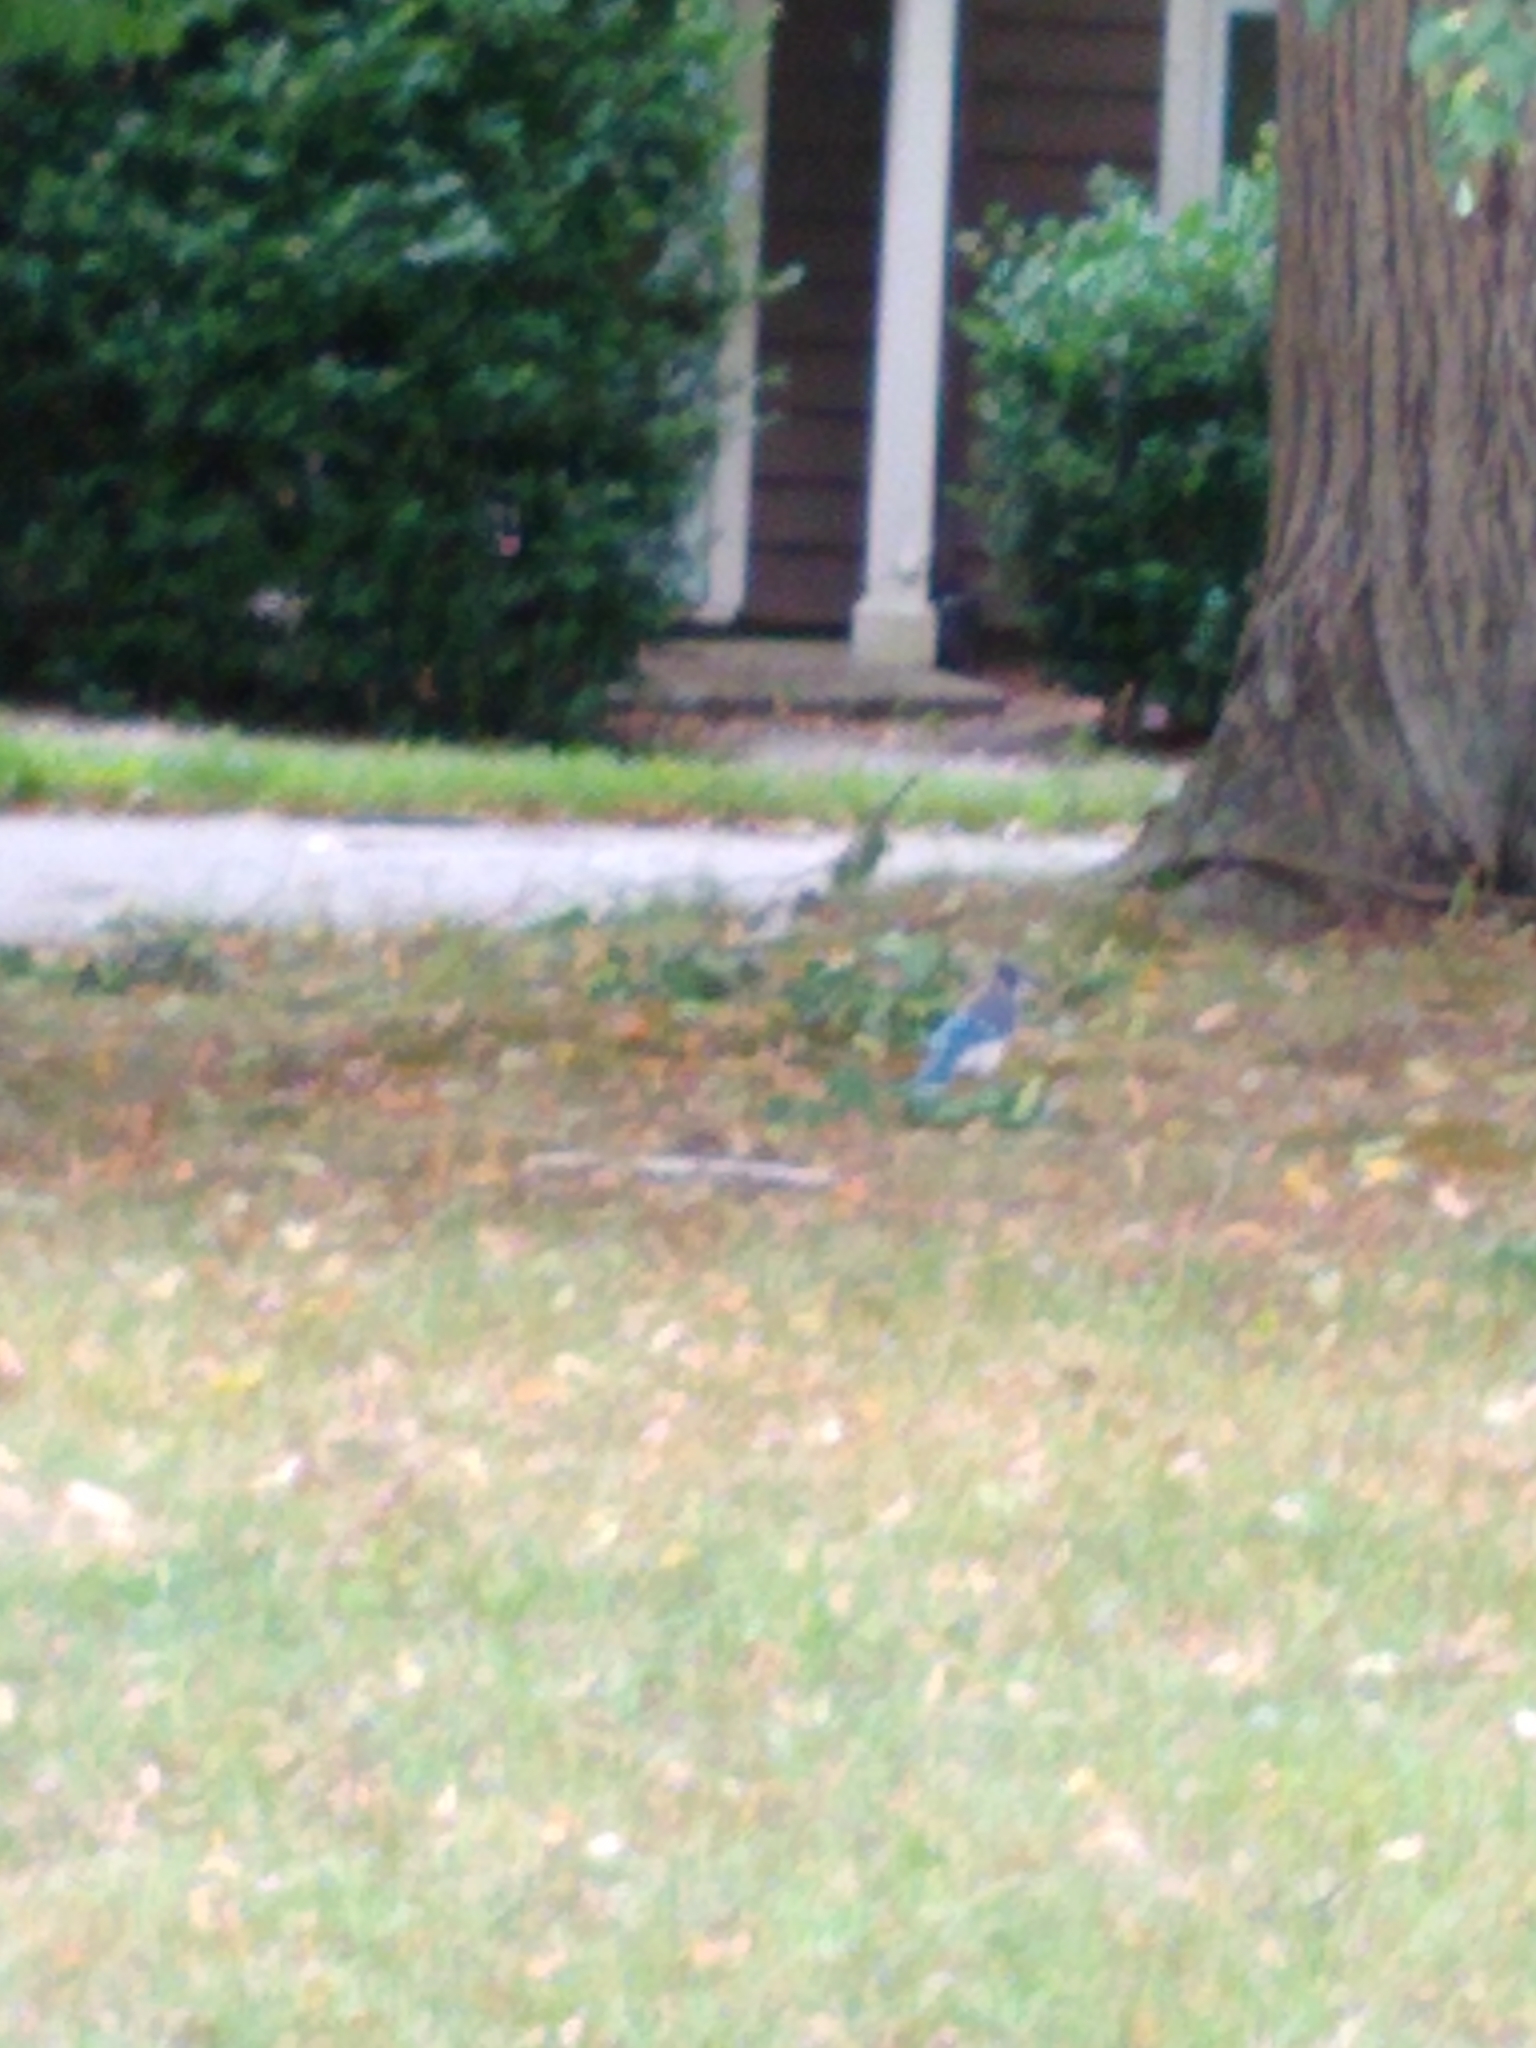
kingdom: Animalia
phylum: Chordata
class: Aves
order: Passeriformes
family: Corvidae
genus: Cyanocitta
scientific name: Cyanocitta cristata
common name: Blue jay
